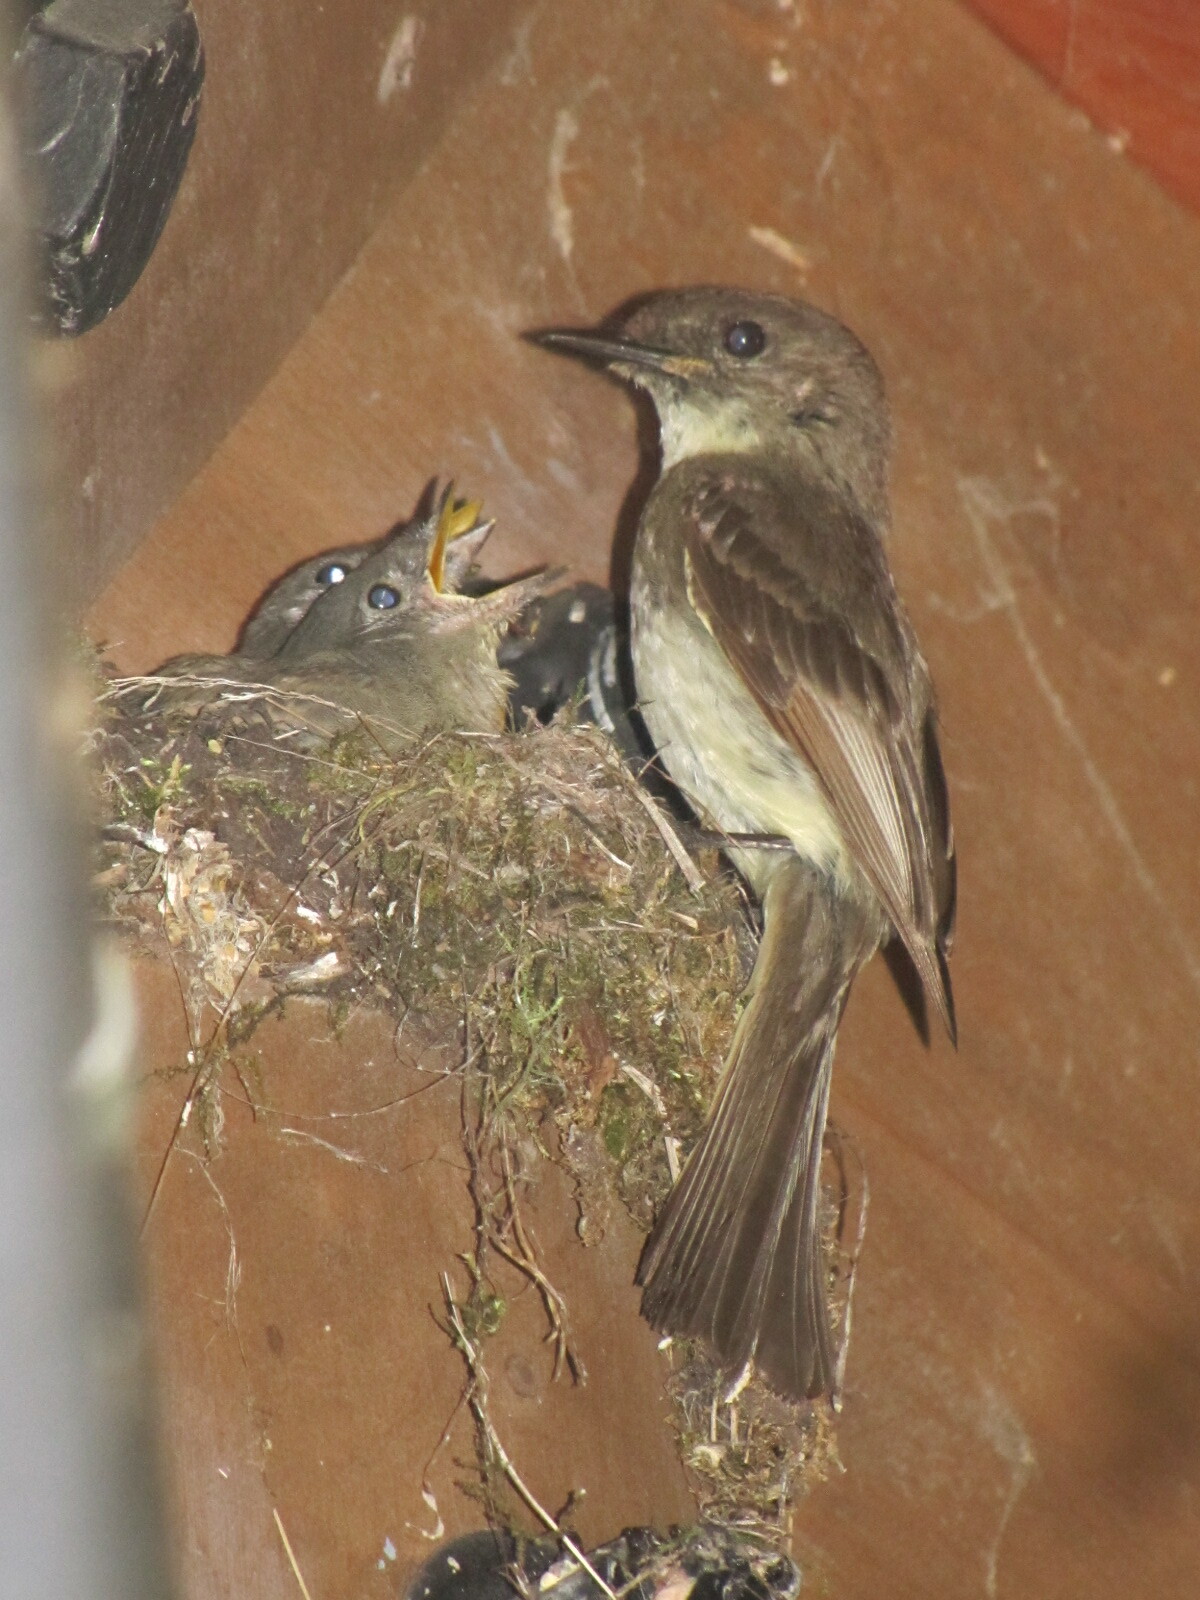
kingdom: Animalia
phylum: Chordata
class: Aves
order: Passeriformes
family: Tyrannidae
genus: Sayornis
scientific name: Sayornis phoebe
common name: Eastern phoebe
